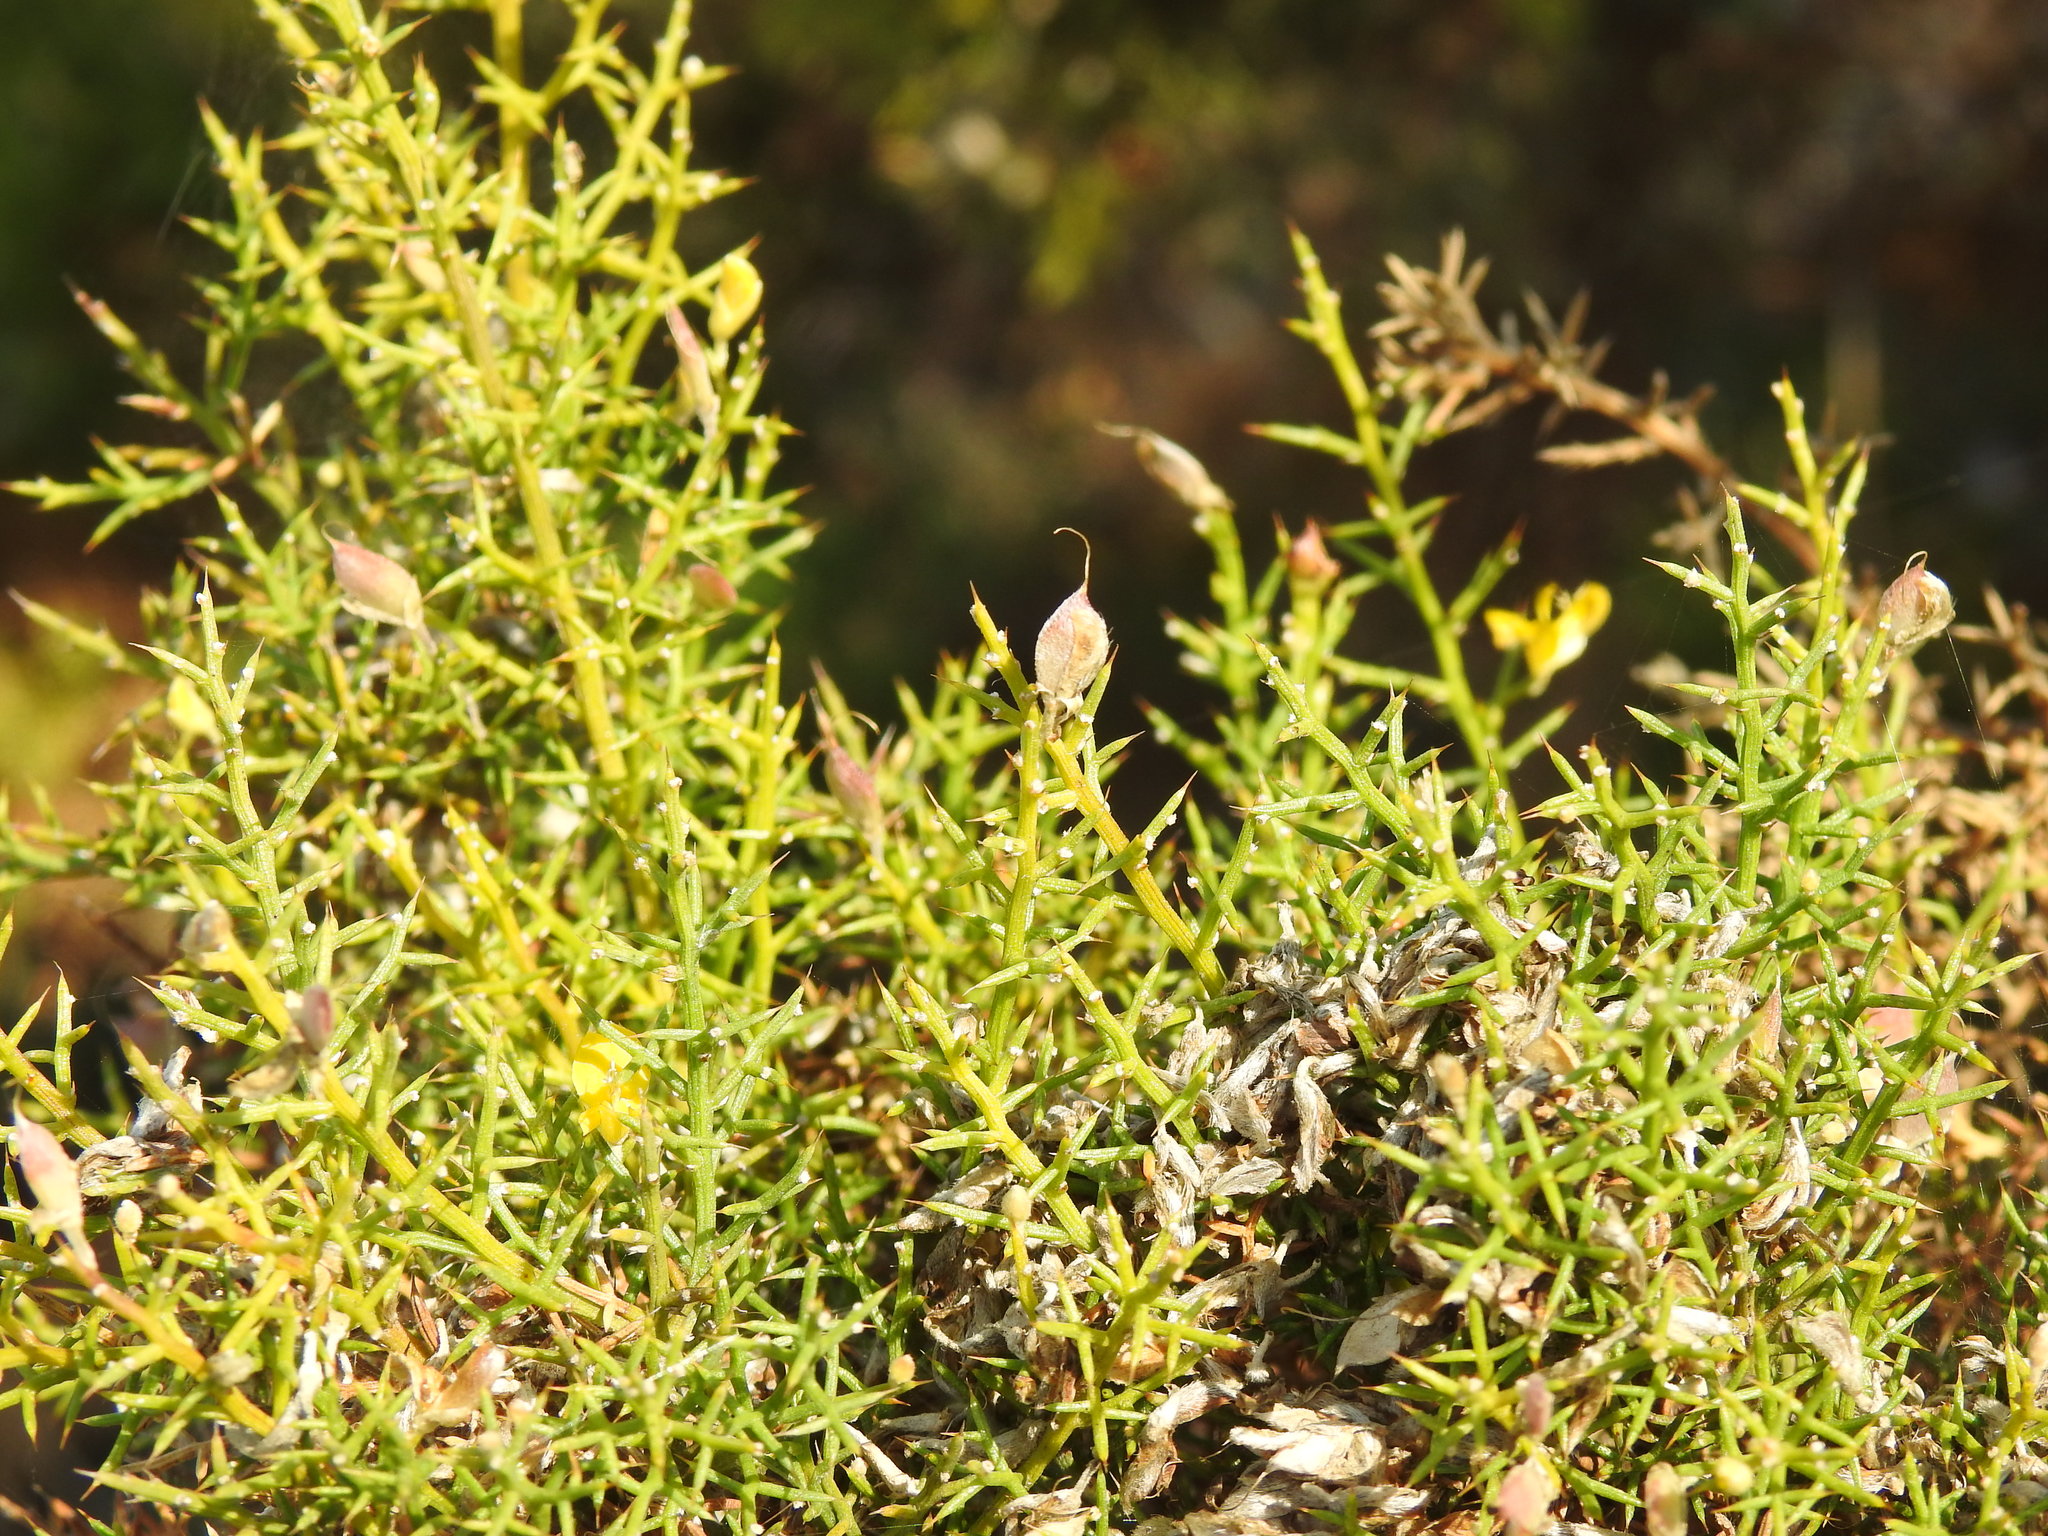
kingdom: Plantae
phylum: Tracheophyta
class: Magnoliopsida
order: Fabales
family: Fabaceae
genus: Stauracanthus
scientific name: Stauracanthus boivinii
